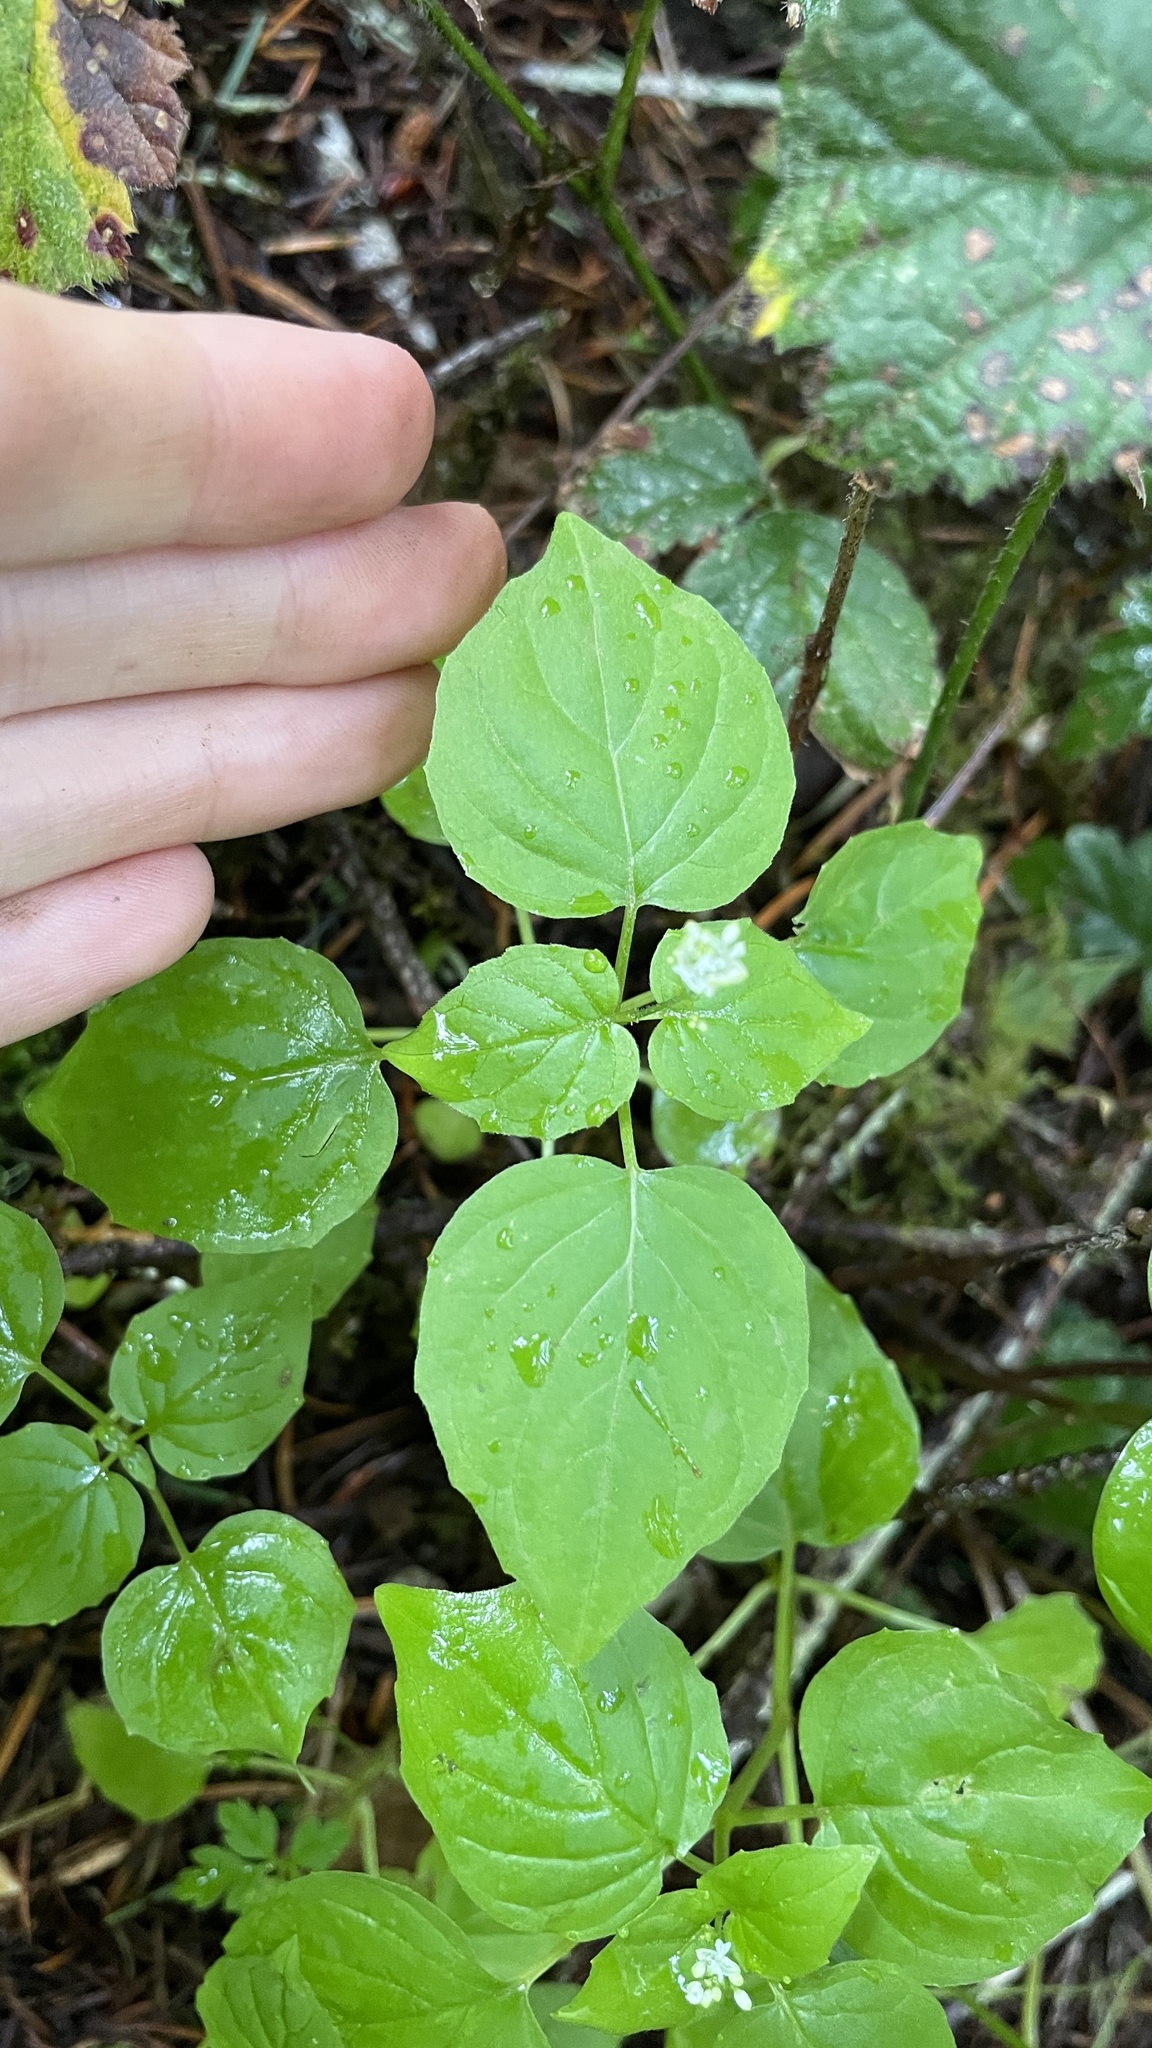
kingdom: Plantae
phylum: Tracheophyta
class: Magnoliopsida
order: Myrtales
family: Onagraceae
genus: Circaea
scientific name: Circaea alpina
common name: Alpine enchanter's-nightshade
